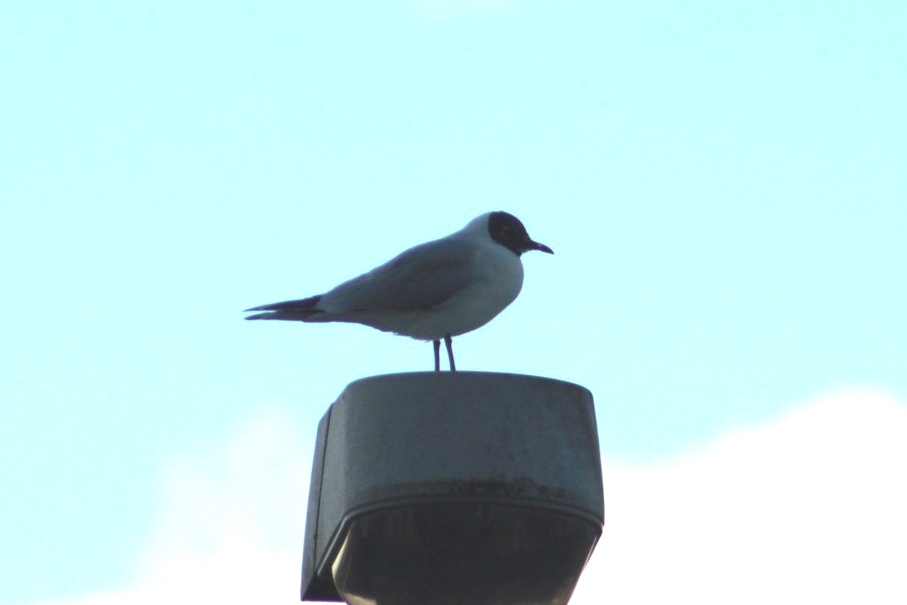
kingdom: Animalia
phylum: Chordata
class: Aves
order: Charadriiformes
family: Laridae
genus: Chroicocephalus
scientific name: Chroicocephalus ridibundus
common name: Black-headed gull
